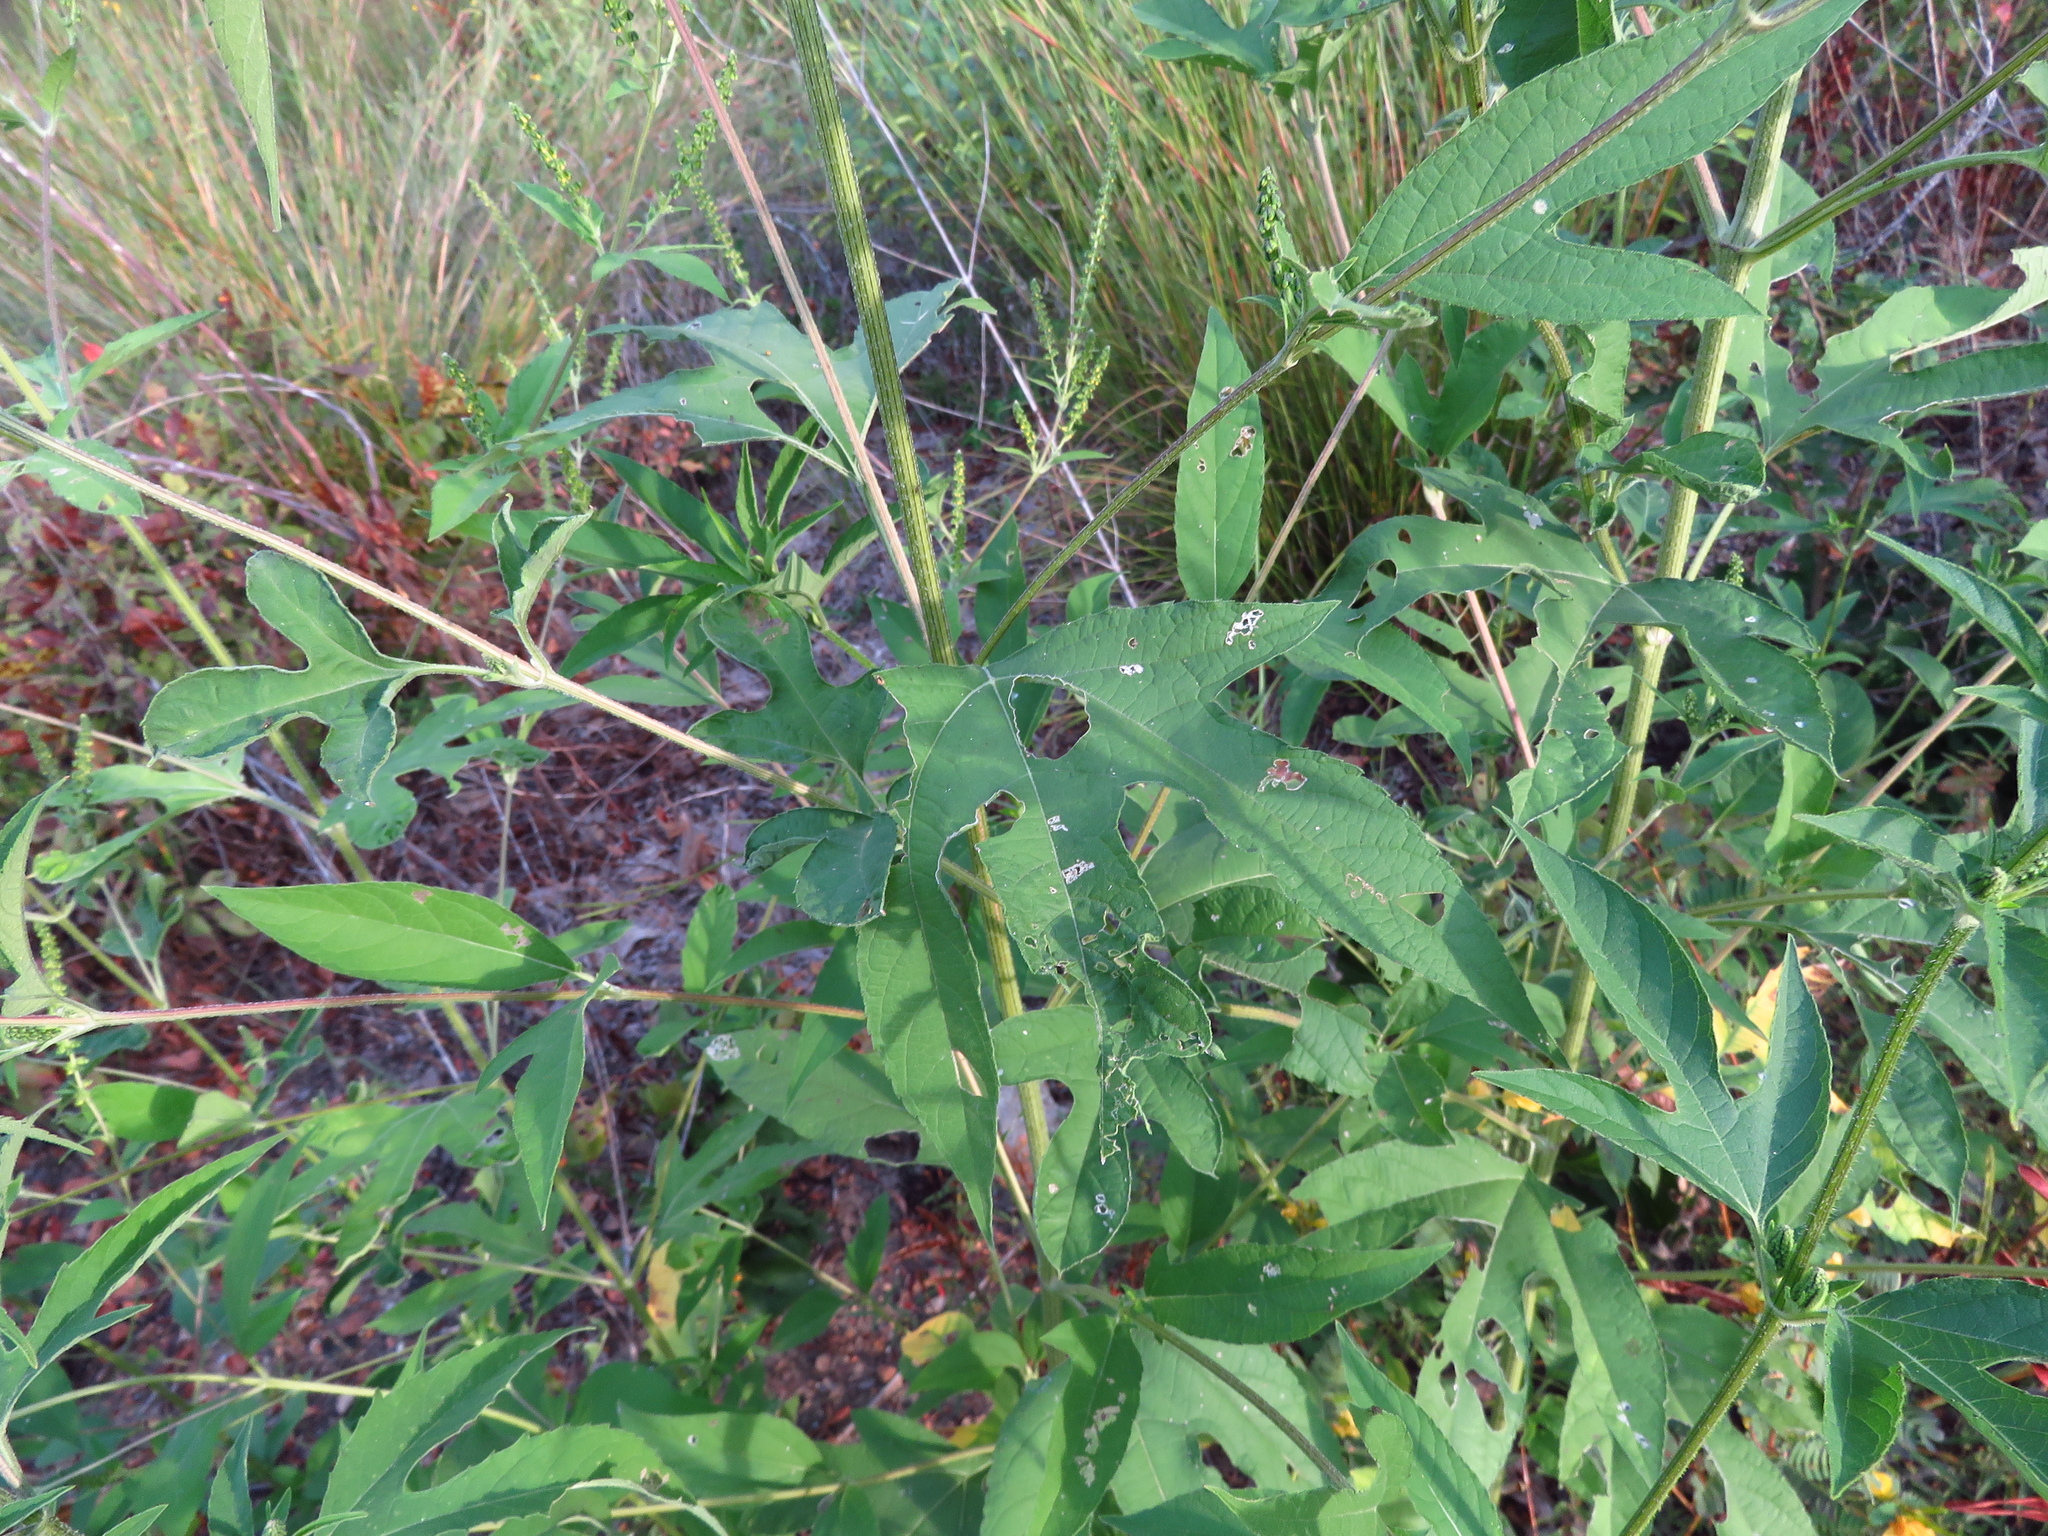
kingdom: Plantae
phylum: Tracheophyta
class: Magnoliopsida
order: Asterales
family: Asteraceae
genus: Ambrosia
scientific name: Ambrosia trifida
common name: Giant ragweed
